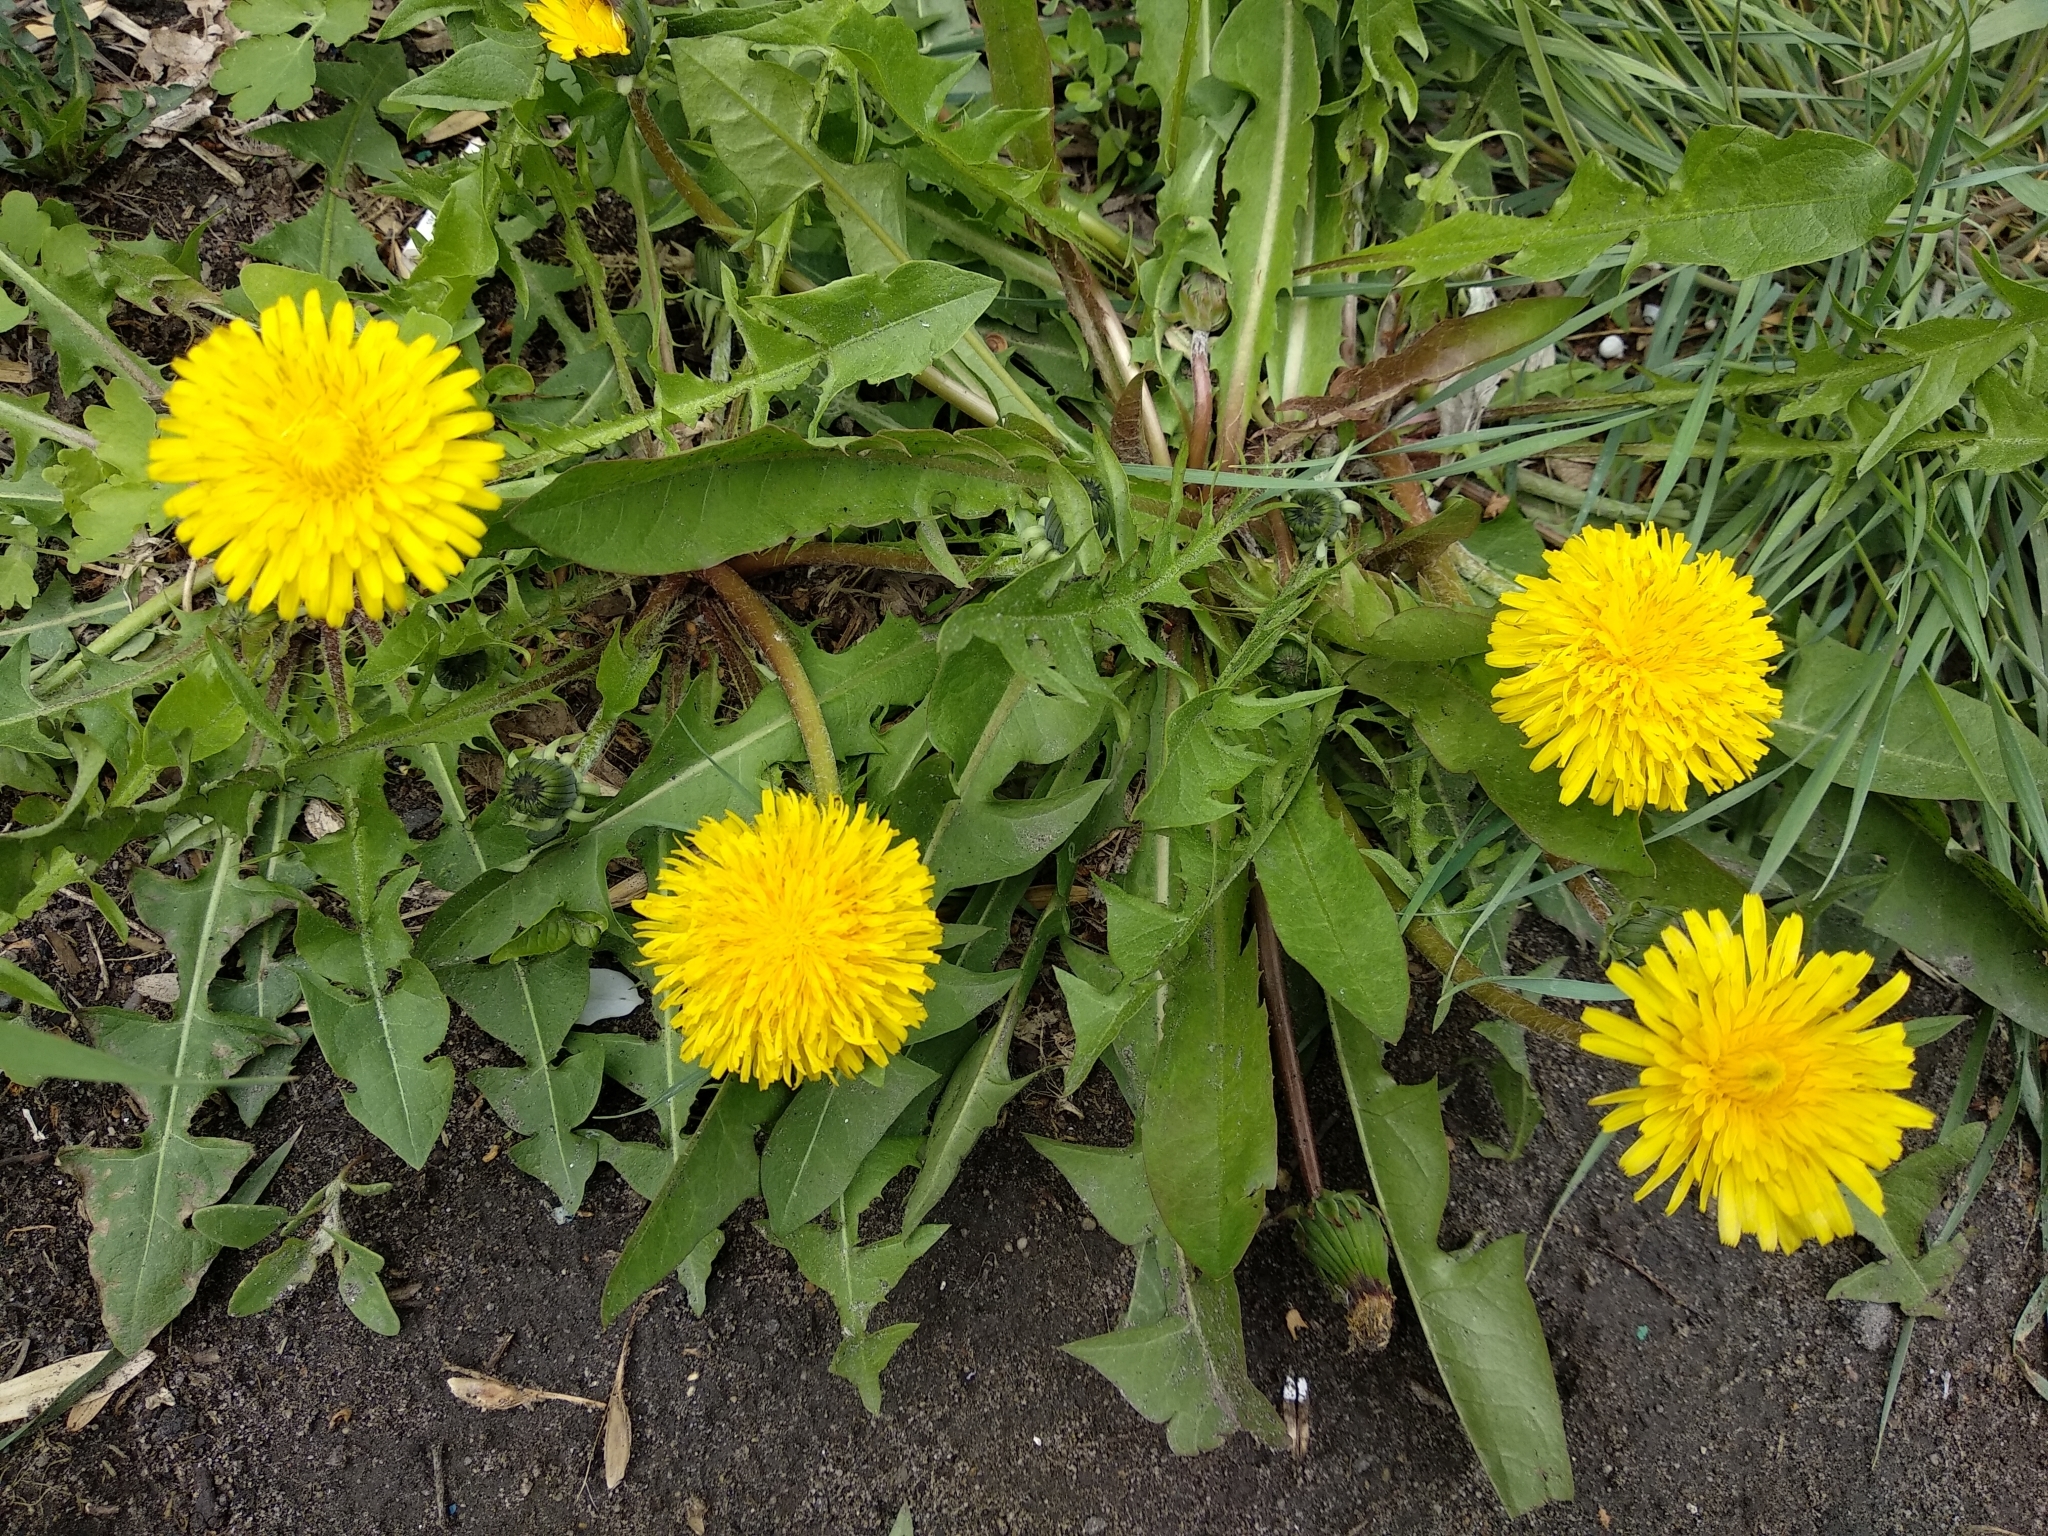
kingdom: Plantae
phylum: Tracheophyta
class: Magnoliopsida
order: Asterales
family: Asteraceae
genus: Taraxacum
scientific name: Taraxacum officinale
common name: Common dandelion
